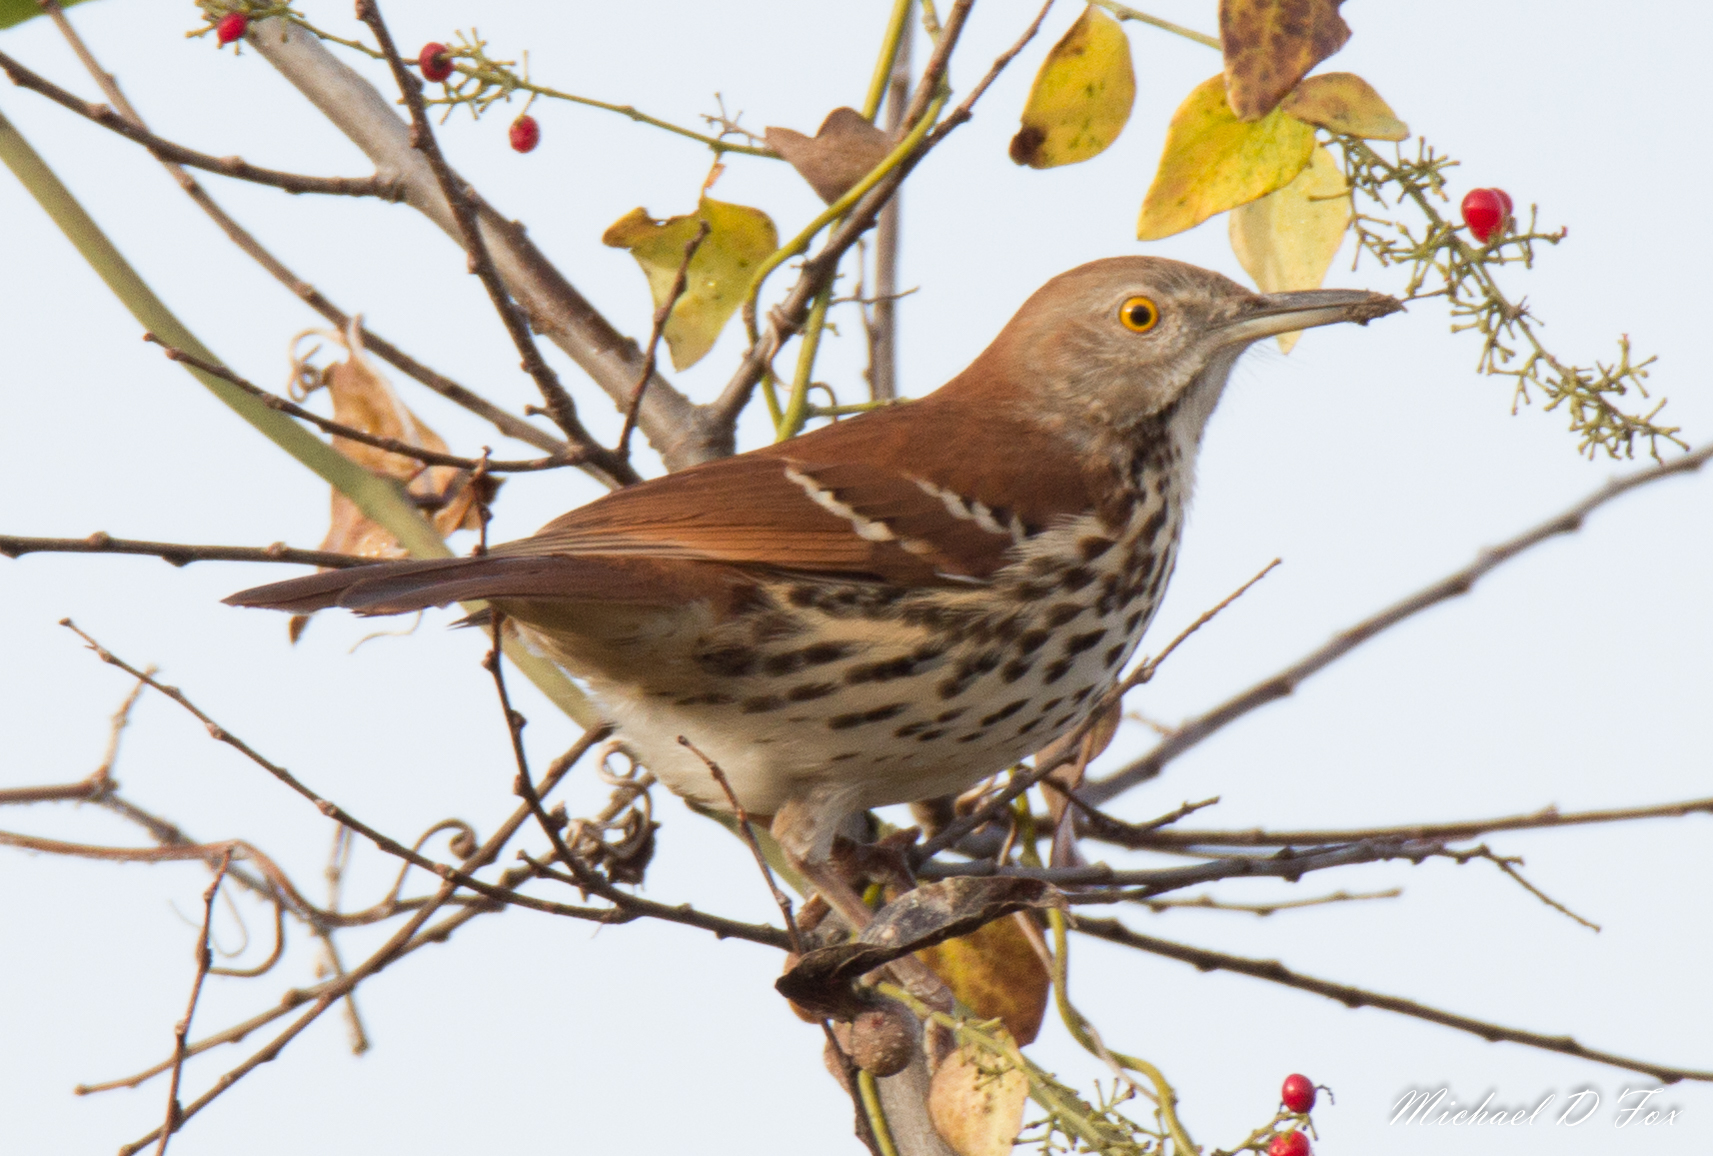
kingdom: Animalia
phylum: Chordata
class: Aves
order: Passeriformes
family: Mimidae
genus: Toxostoma
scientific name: Toxostoma rufum
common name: Brown thrasher
